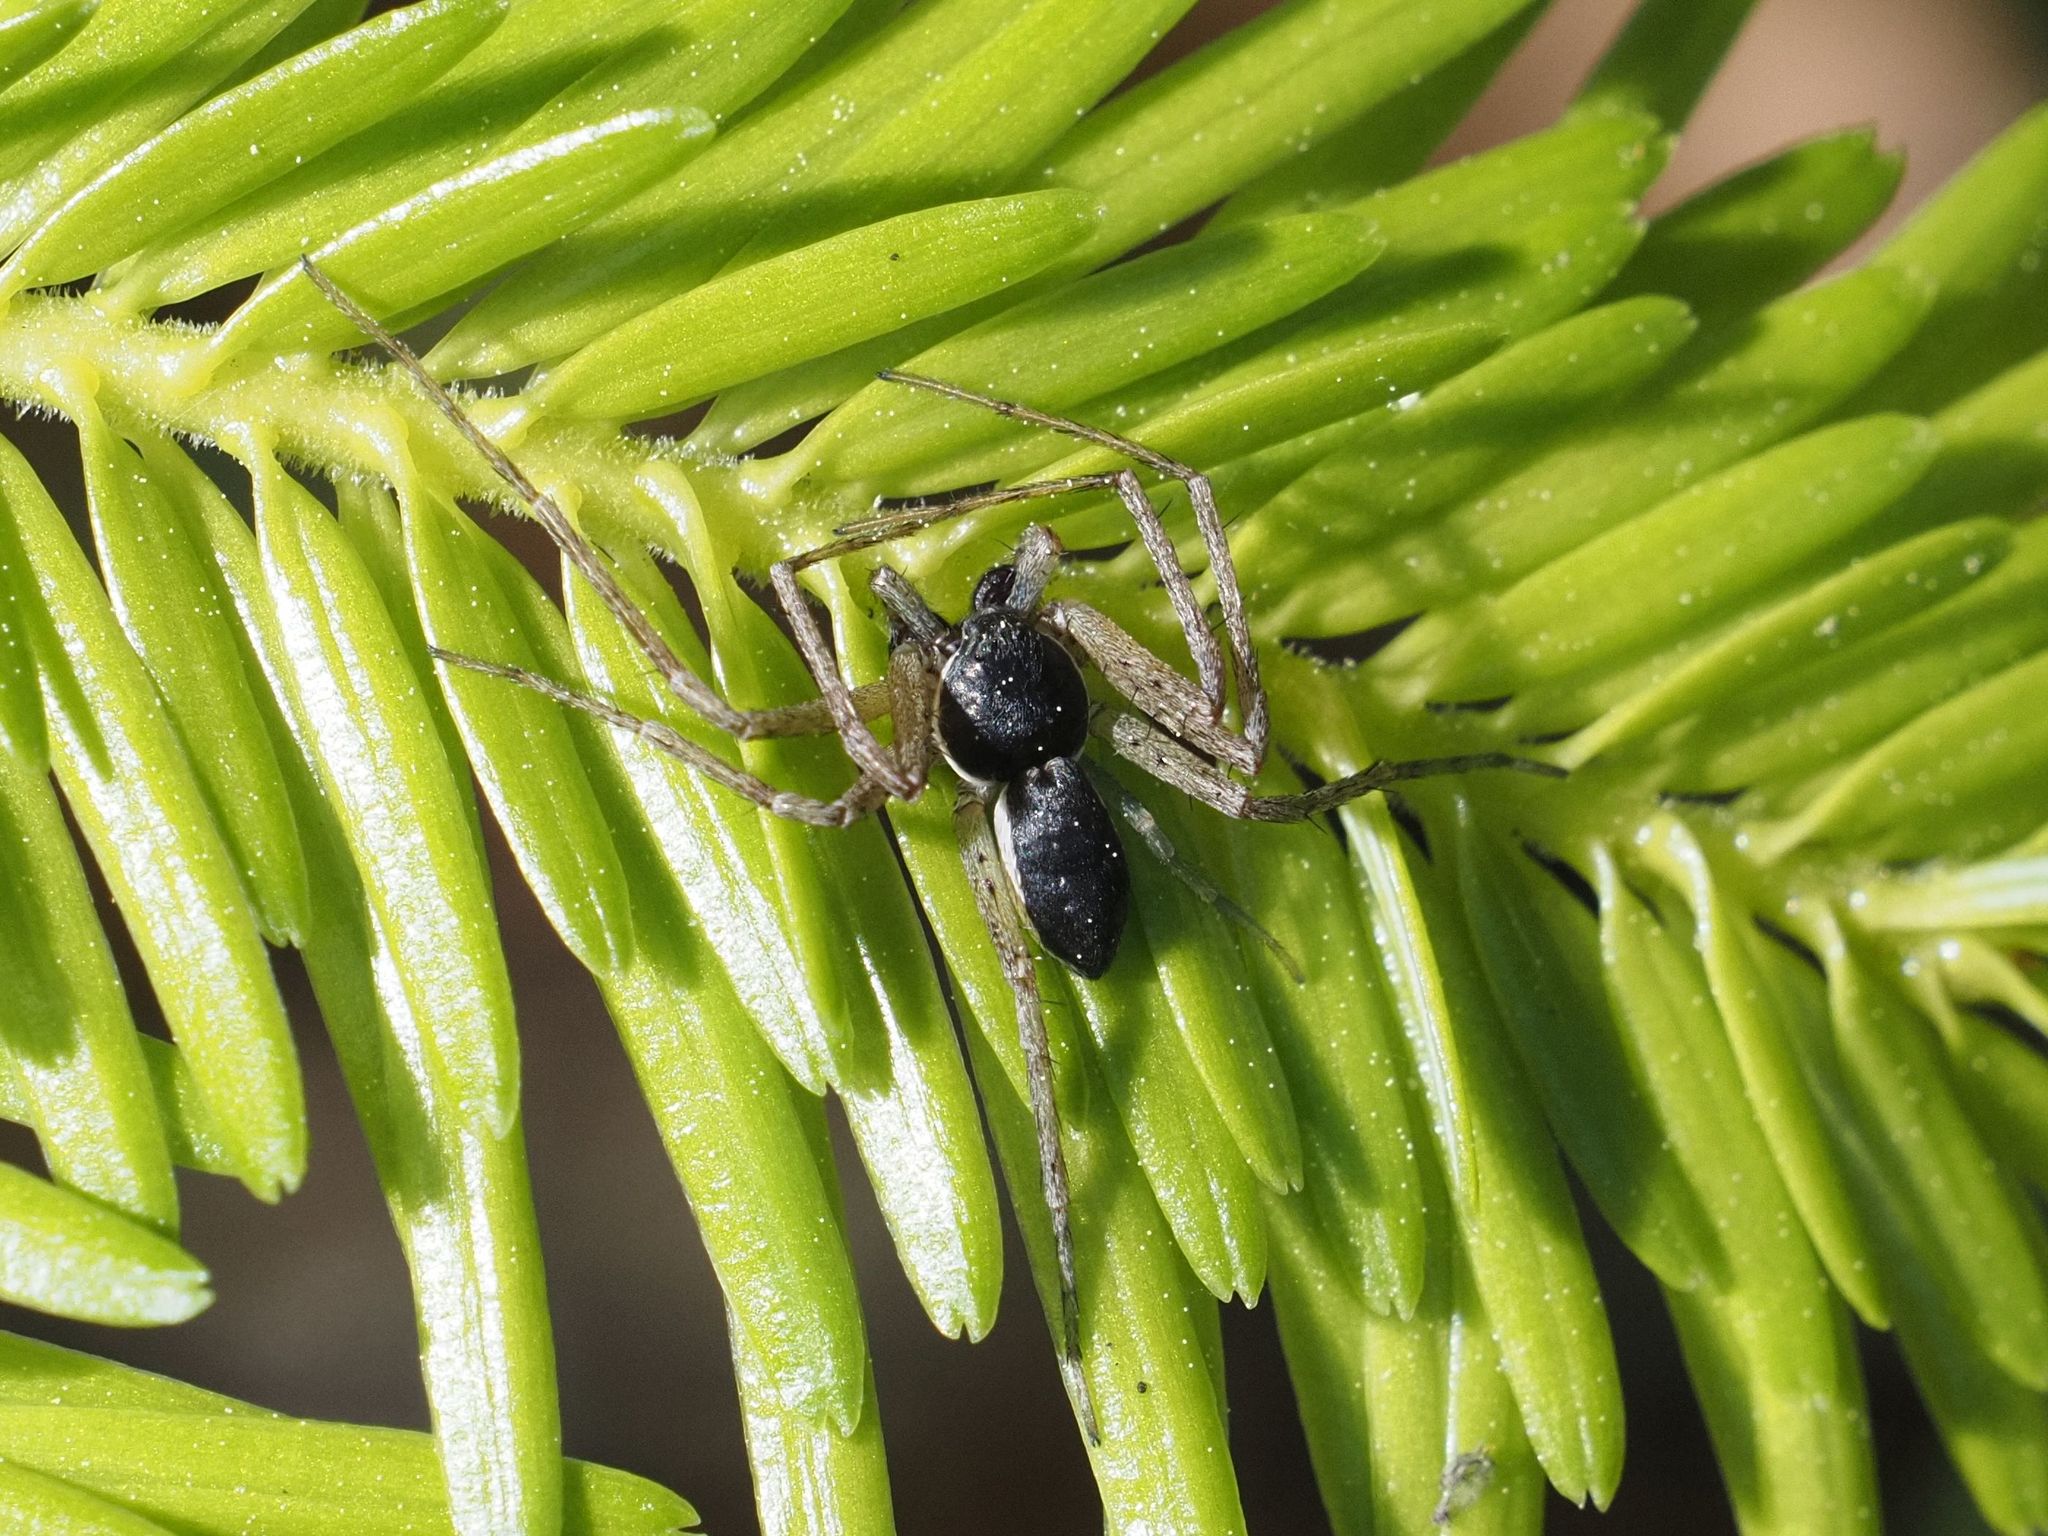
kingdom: Animalia
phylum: Arthropoda
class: Arachnida
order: Araneae
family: Philodromidae
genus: Philodromus
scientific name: Philodromus dispar
